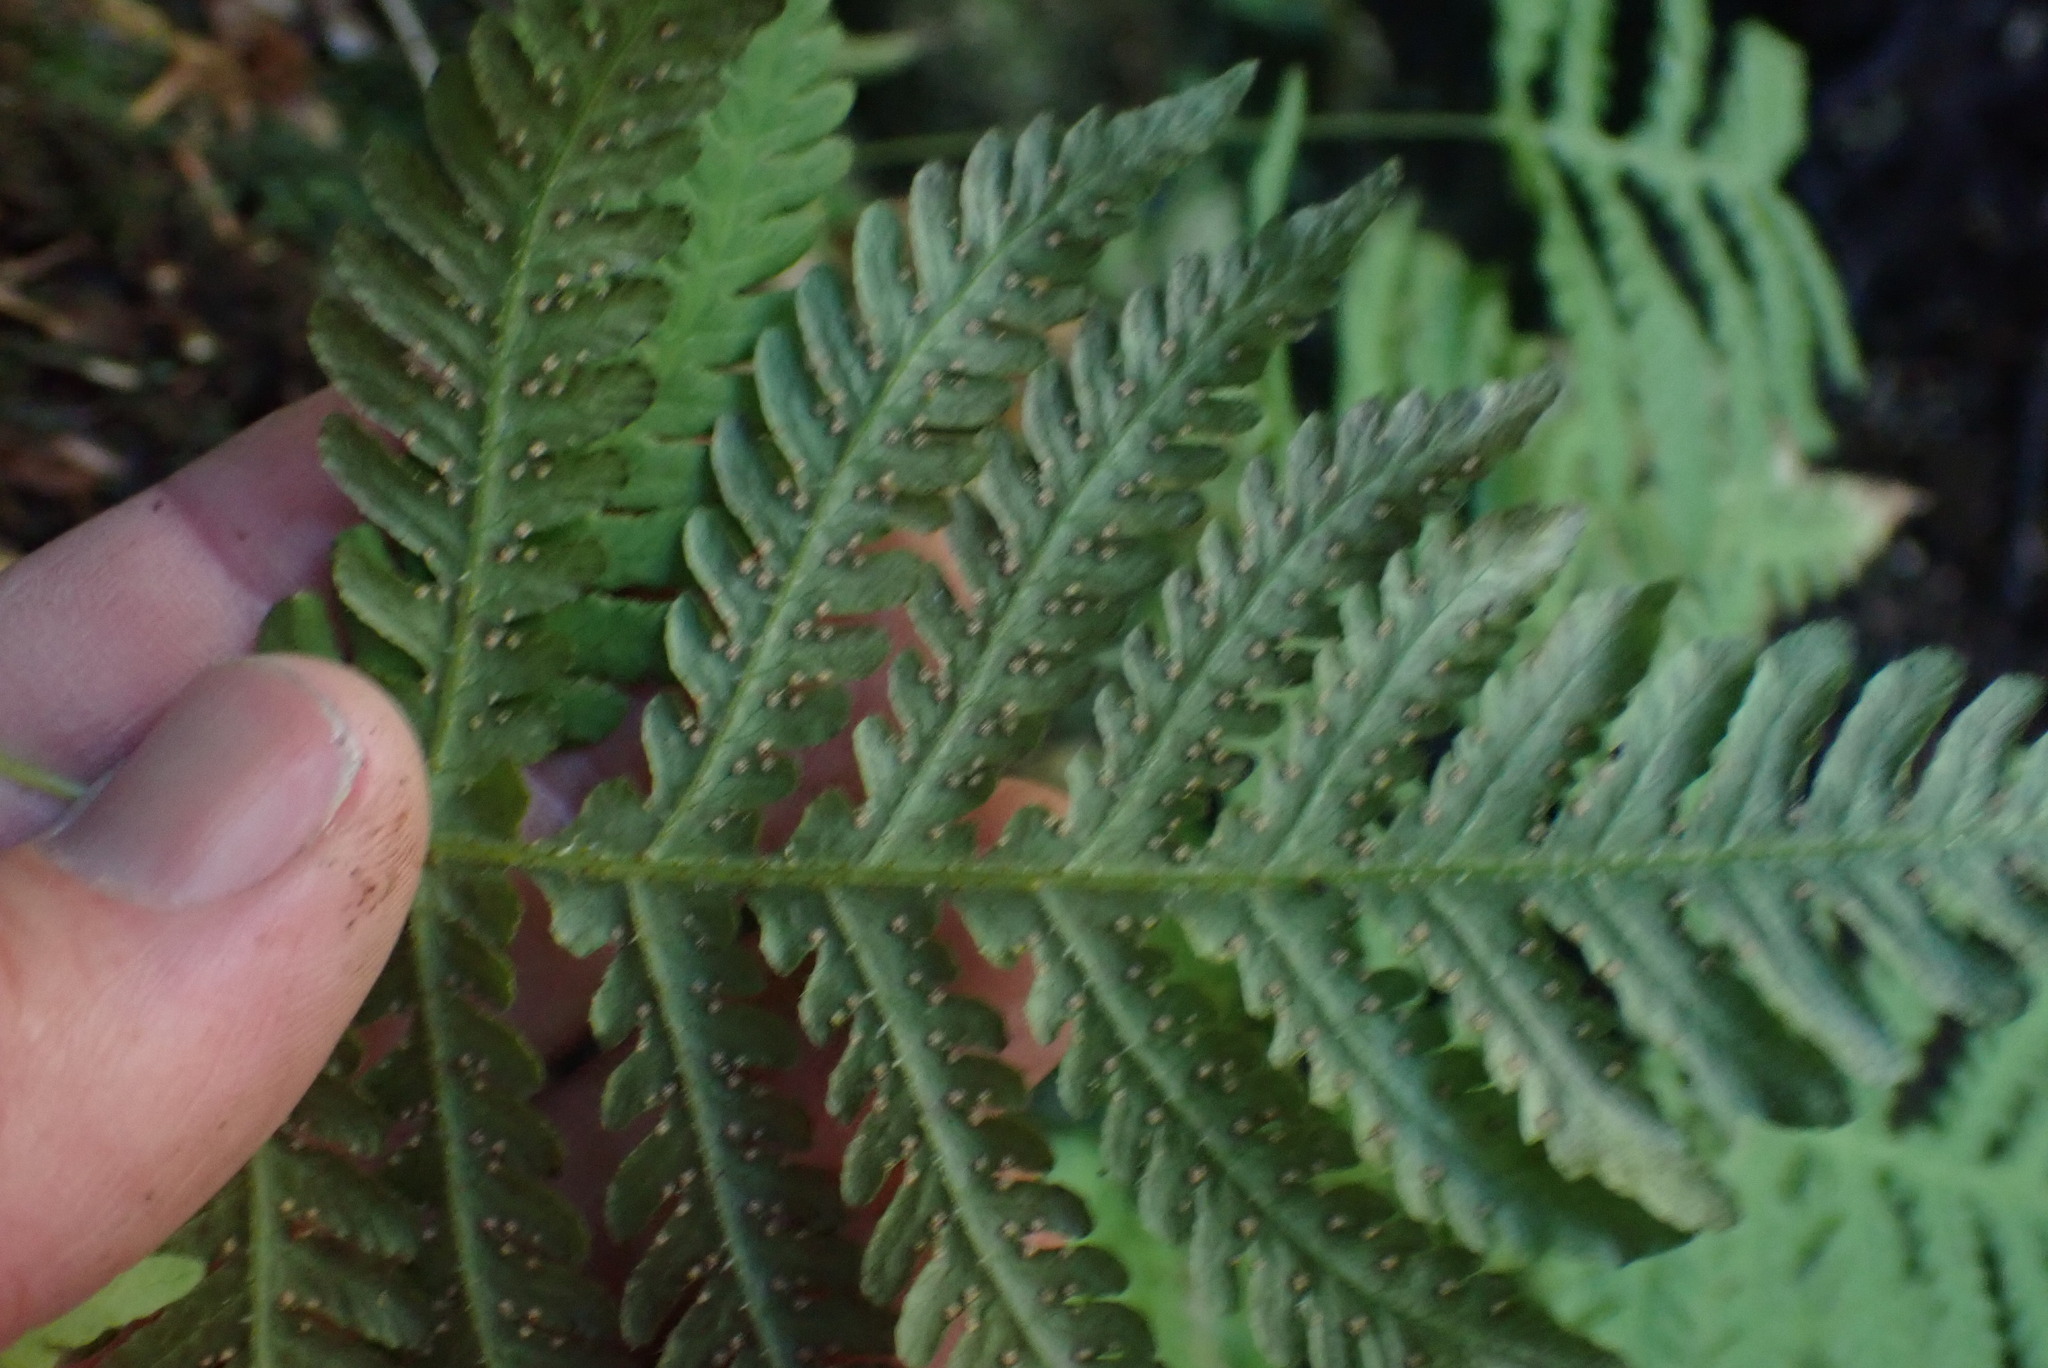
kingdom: Plantae
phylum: Tracheophyta
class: Polypodiopsida
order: Polypodiales
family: Thelypteridaceae
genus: Phegopteris
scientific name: Phegopteris connectilis
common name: Beech fern
